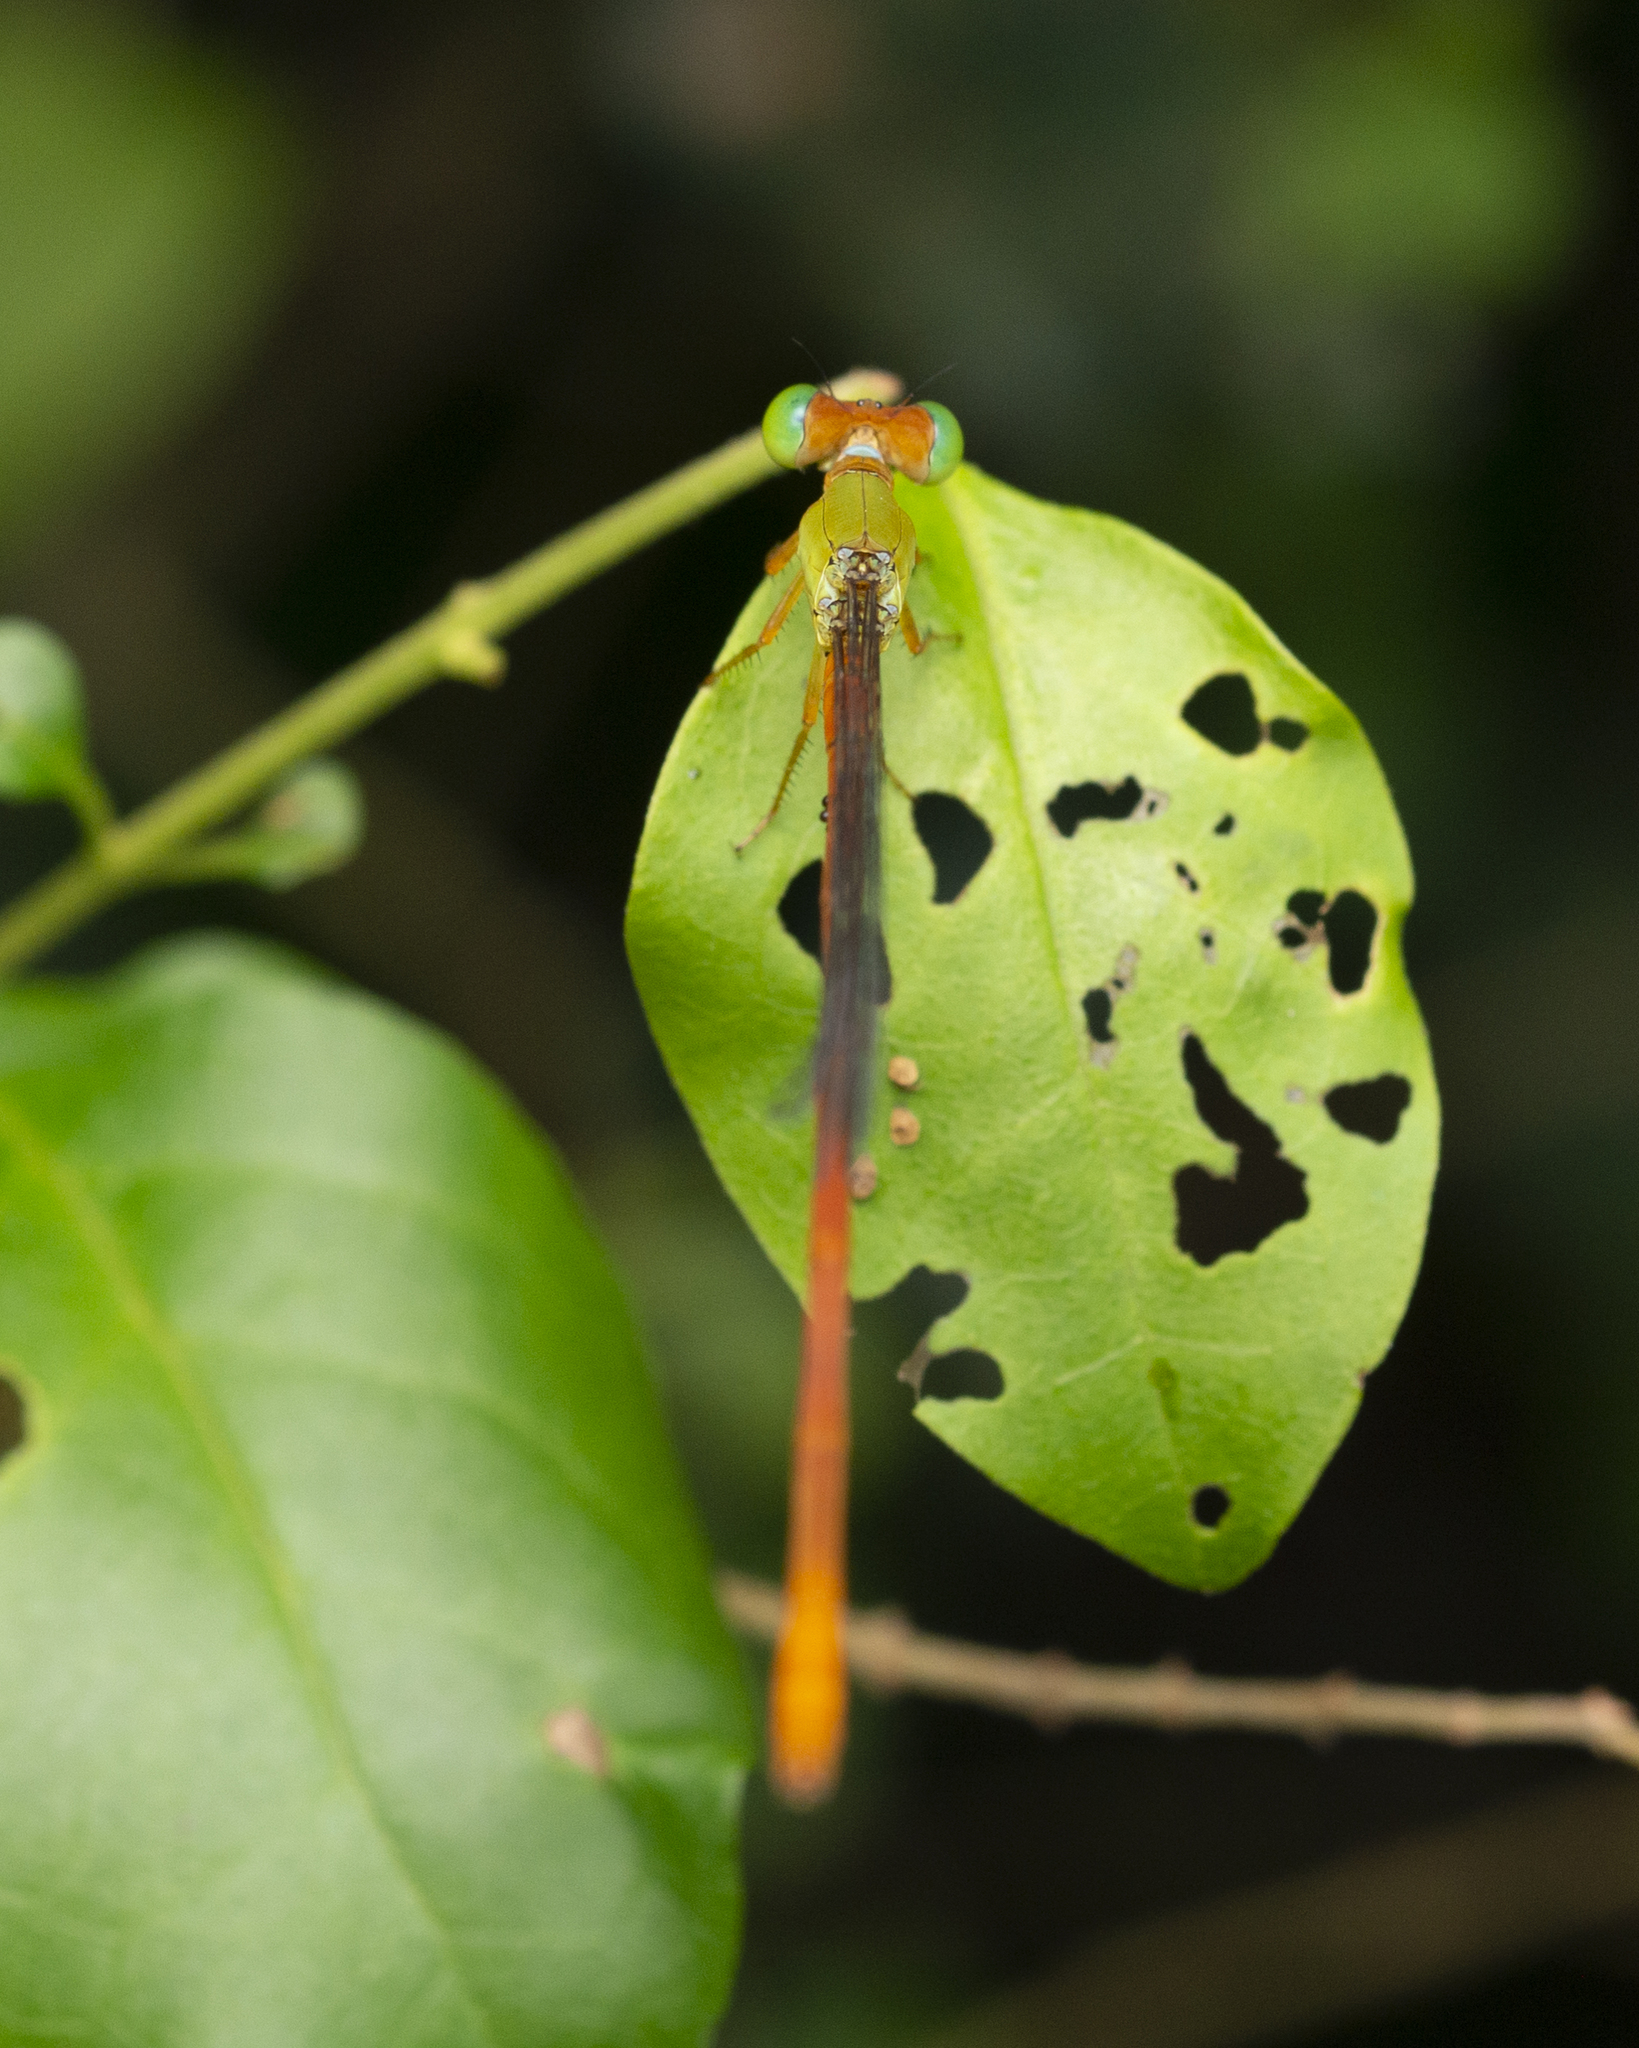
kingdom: Animalia
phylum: Arthropoda
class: Insecta
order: Odonata
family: Coenagrionidae
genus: Ceriagrion
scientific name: Ceriagrion auranticum
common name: Orange-tailed sprite
